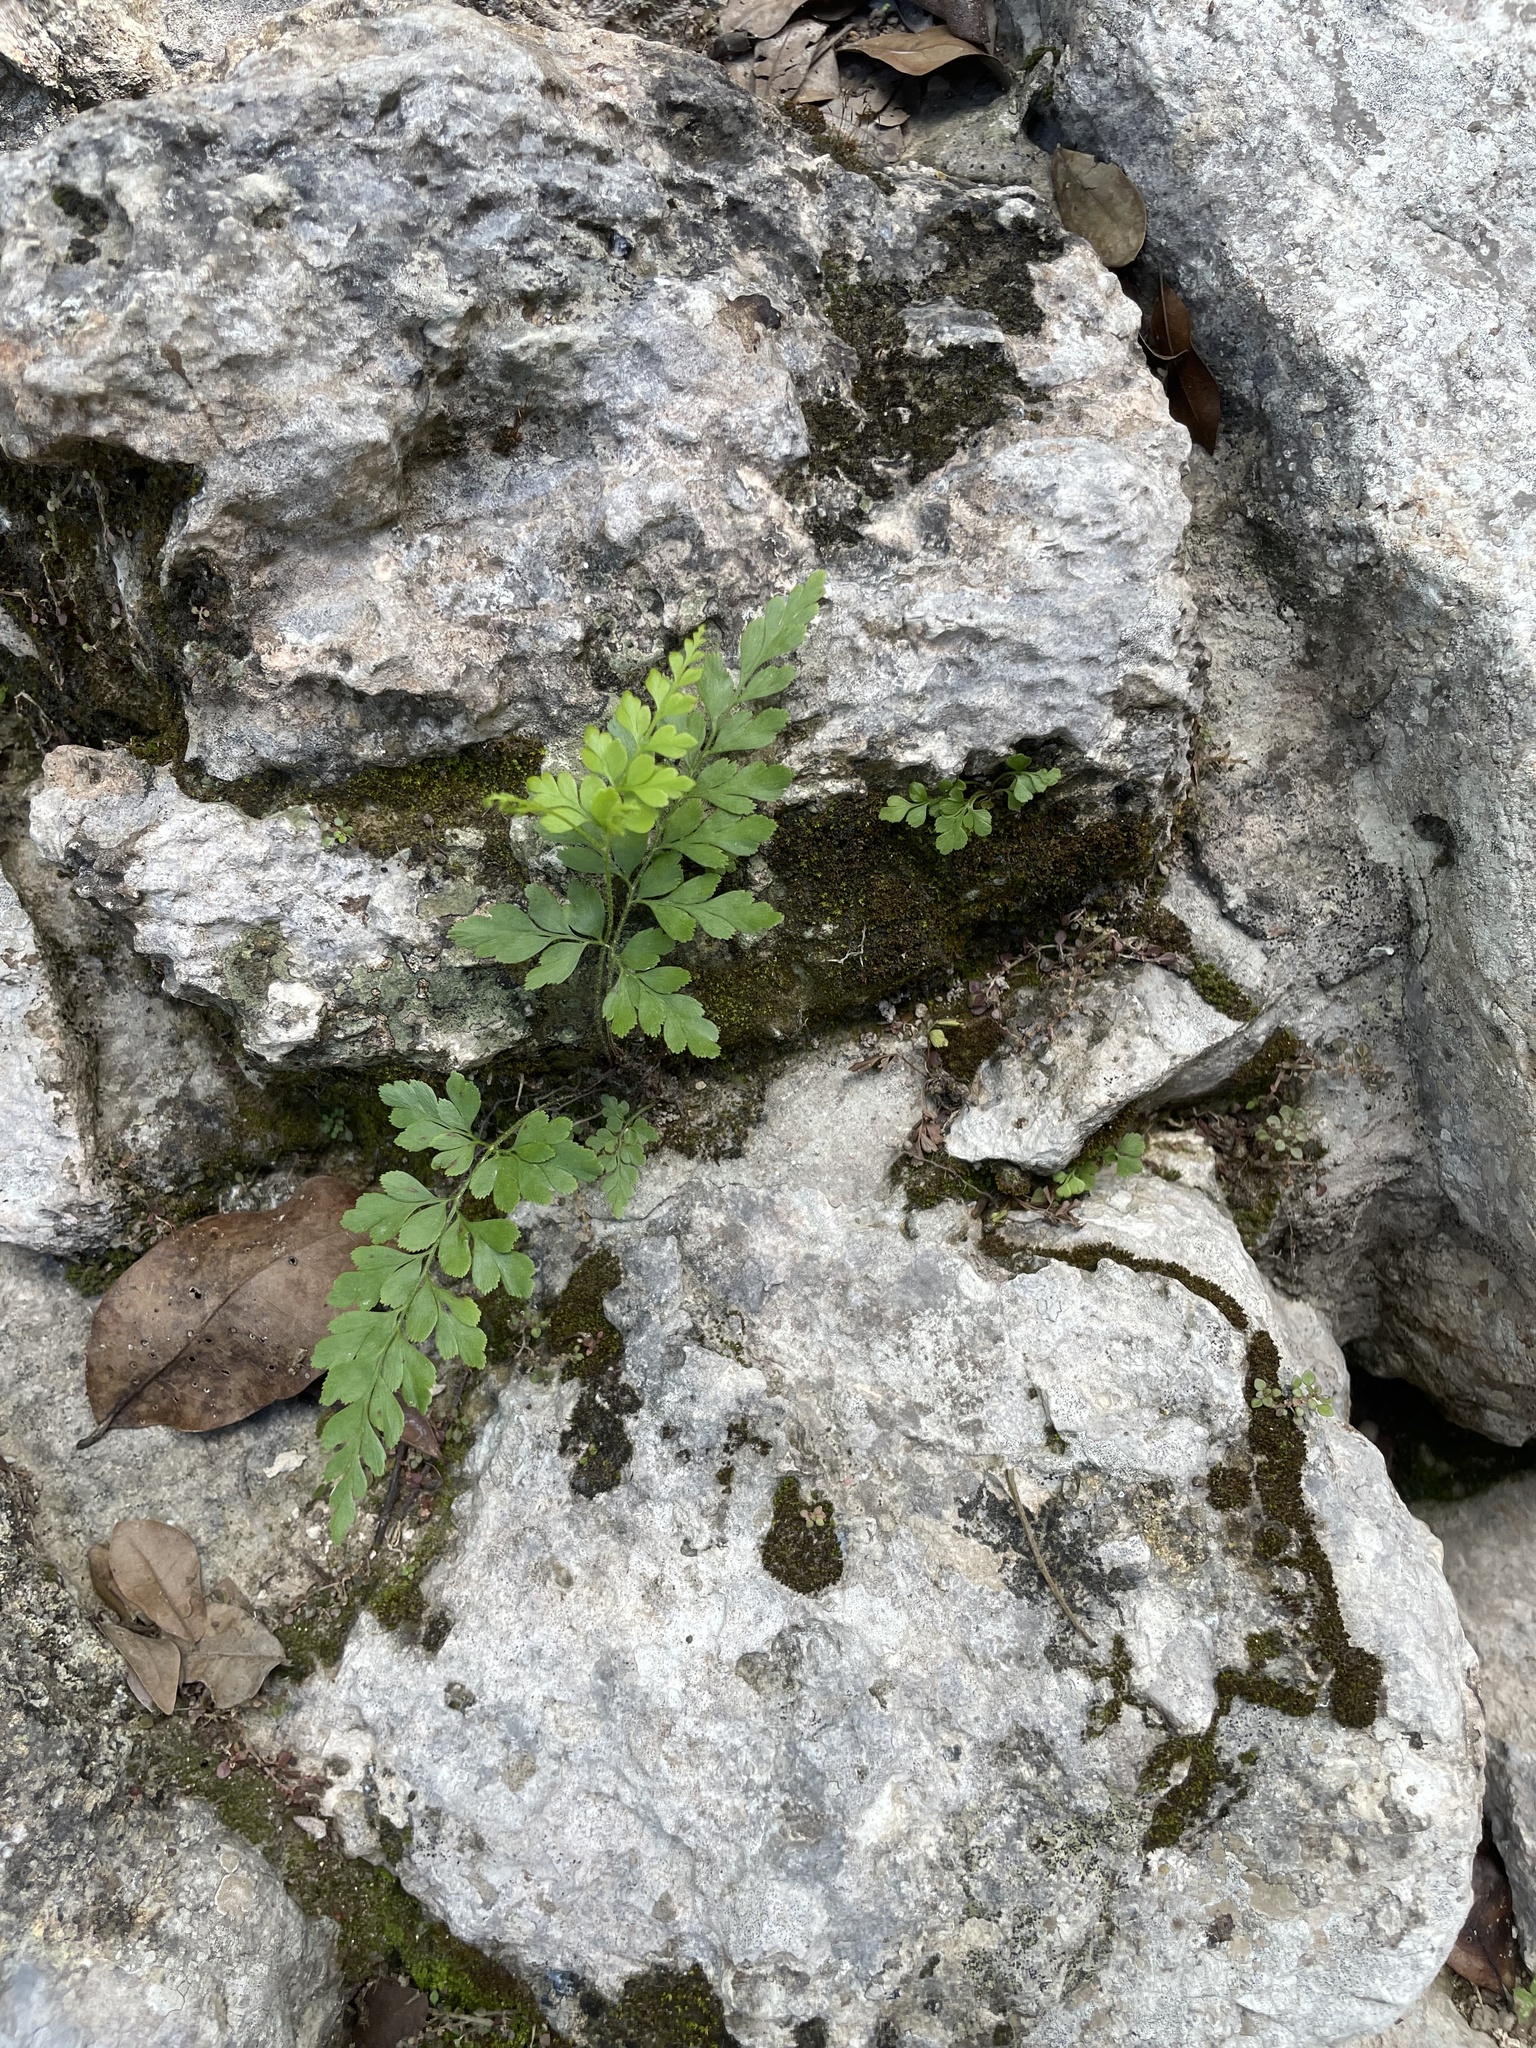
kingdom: Plantae
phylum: Tracheophyta
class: Polypodiopsida
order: Schizaeales
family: Anemiaceae
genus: Anemia
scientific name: Anemia adiantifolia
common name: Pine fern
